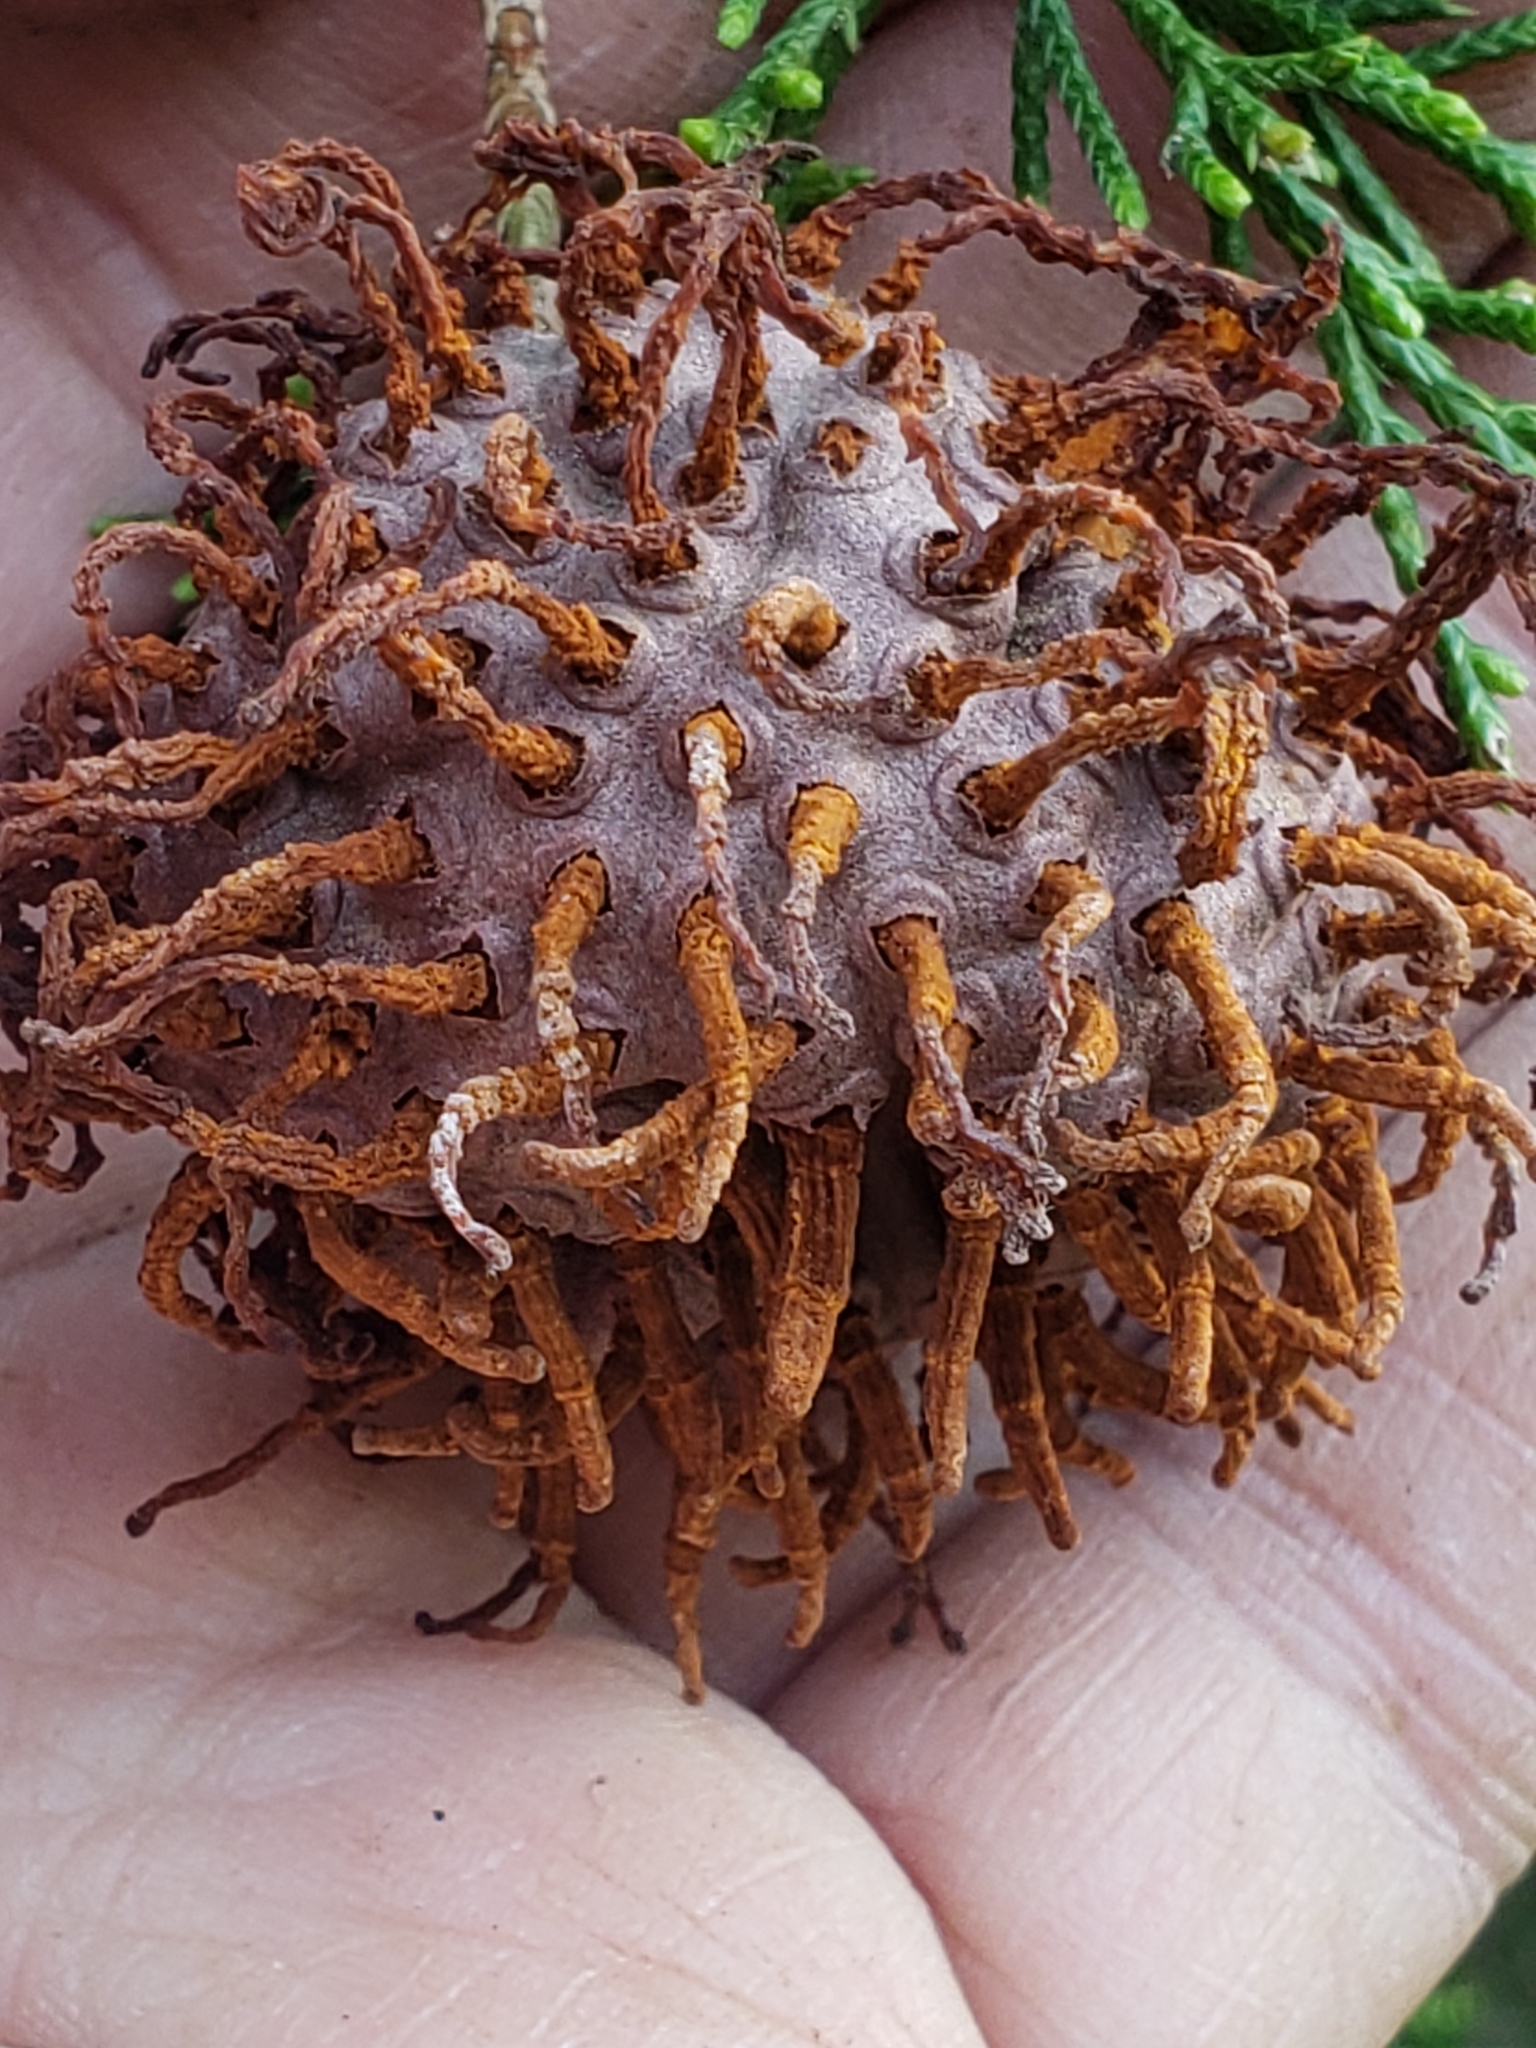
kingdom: Fungi
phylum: Basidiomycota
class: Pucciniomycetes
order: Pucciniales
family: Gymnosporangiaceae
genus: Gymnosporangium
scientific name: Gymnosporangium juniperi-virginianae
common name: Juniper-apple rust
